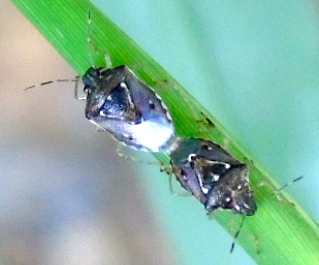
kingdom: Animalia
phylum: Arthropoda
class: Insecta
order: Hemiptera
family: Pentatomidae
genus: Mormidea
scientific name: Mormidea pama
